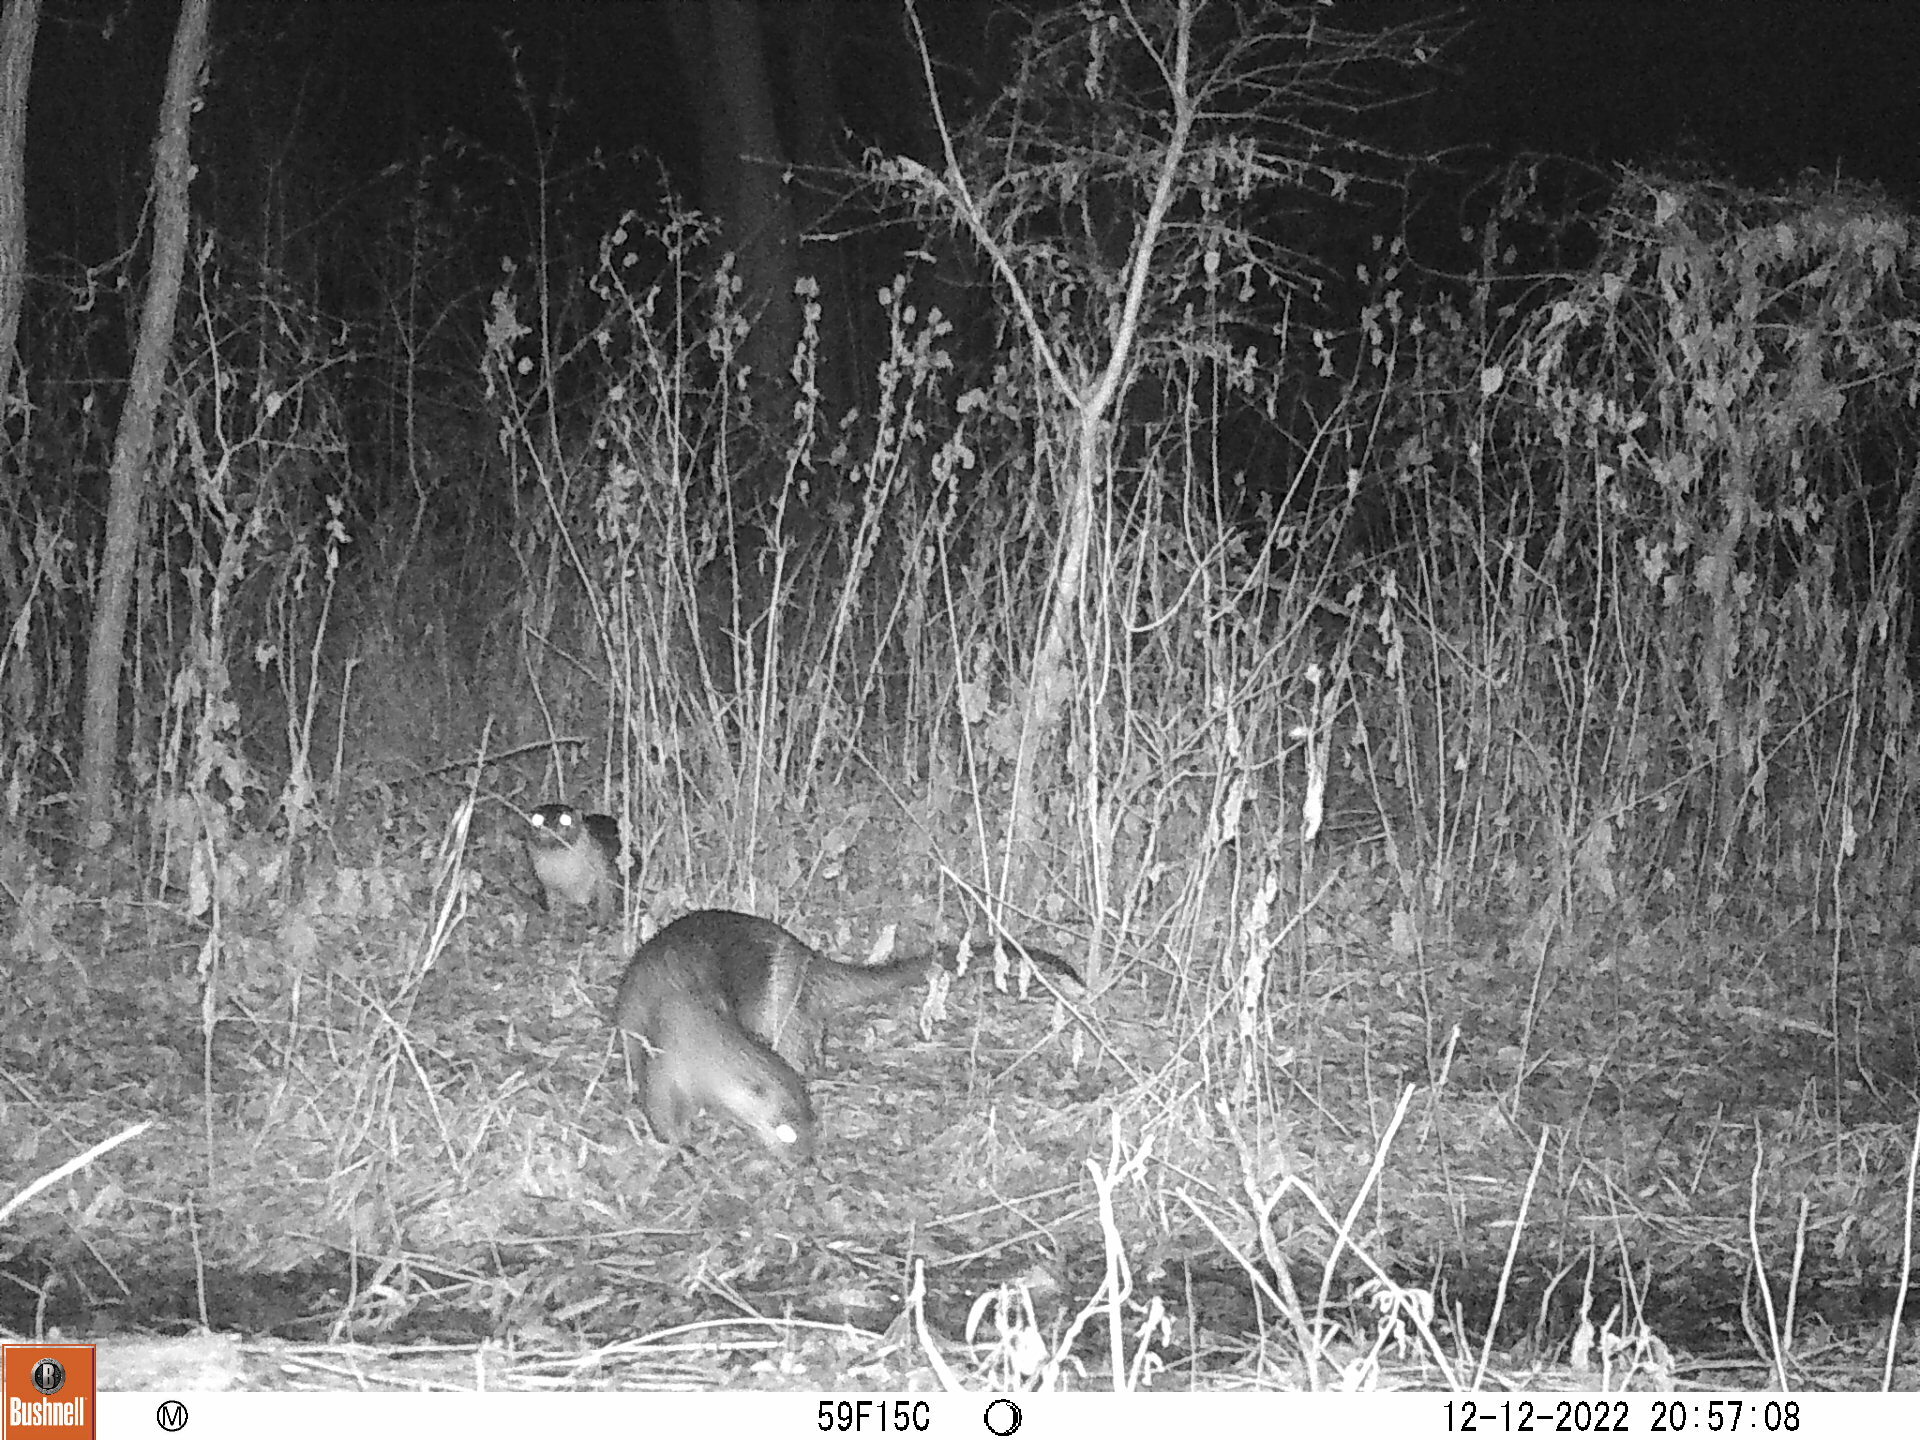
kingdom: Animalia
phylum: Chordata
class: Mammalia
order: Carnivora
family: Mustelidae
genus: Lontra
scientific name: Lontra canadensis
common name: North american river otter
